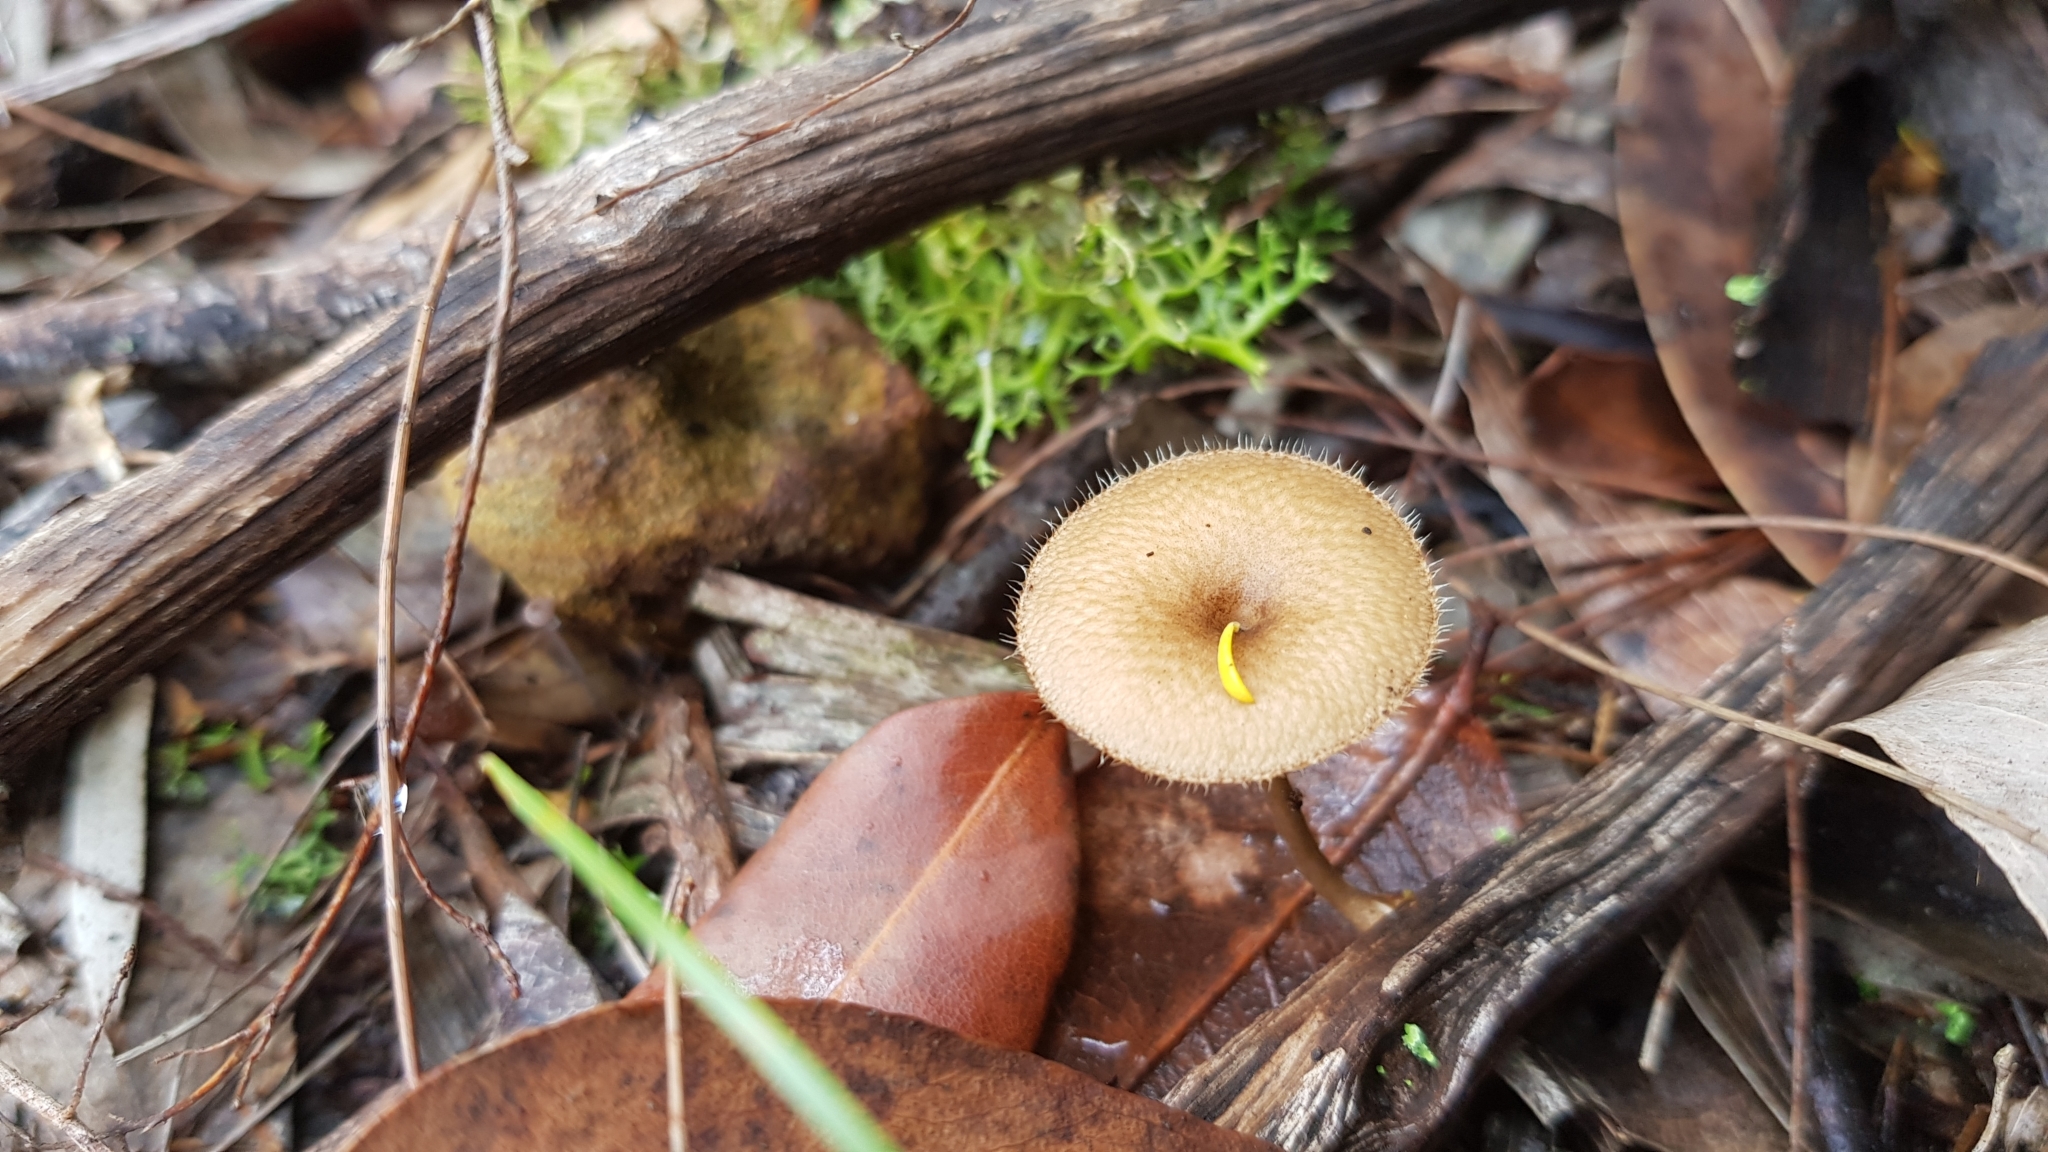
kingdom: Fungi
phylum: Basidiomycota
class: Agaricomycetes
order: Polyporales
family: Polyporaceae
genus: Lentinus
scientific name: Lentinus arcularius
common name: Spring polypore
